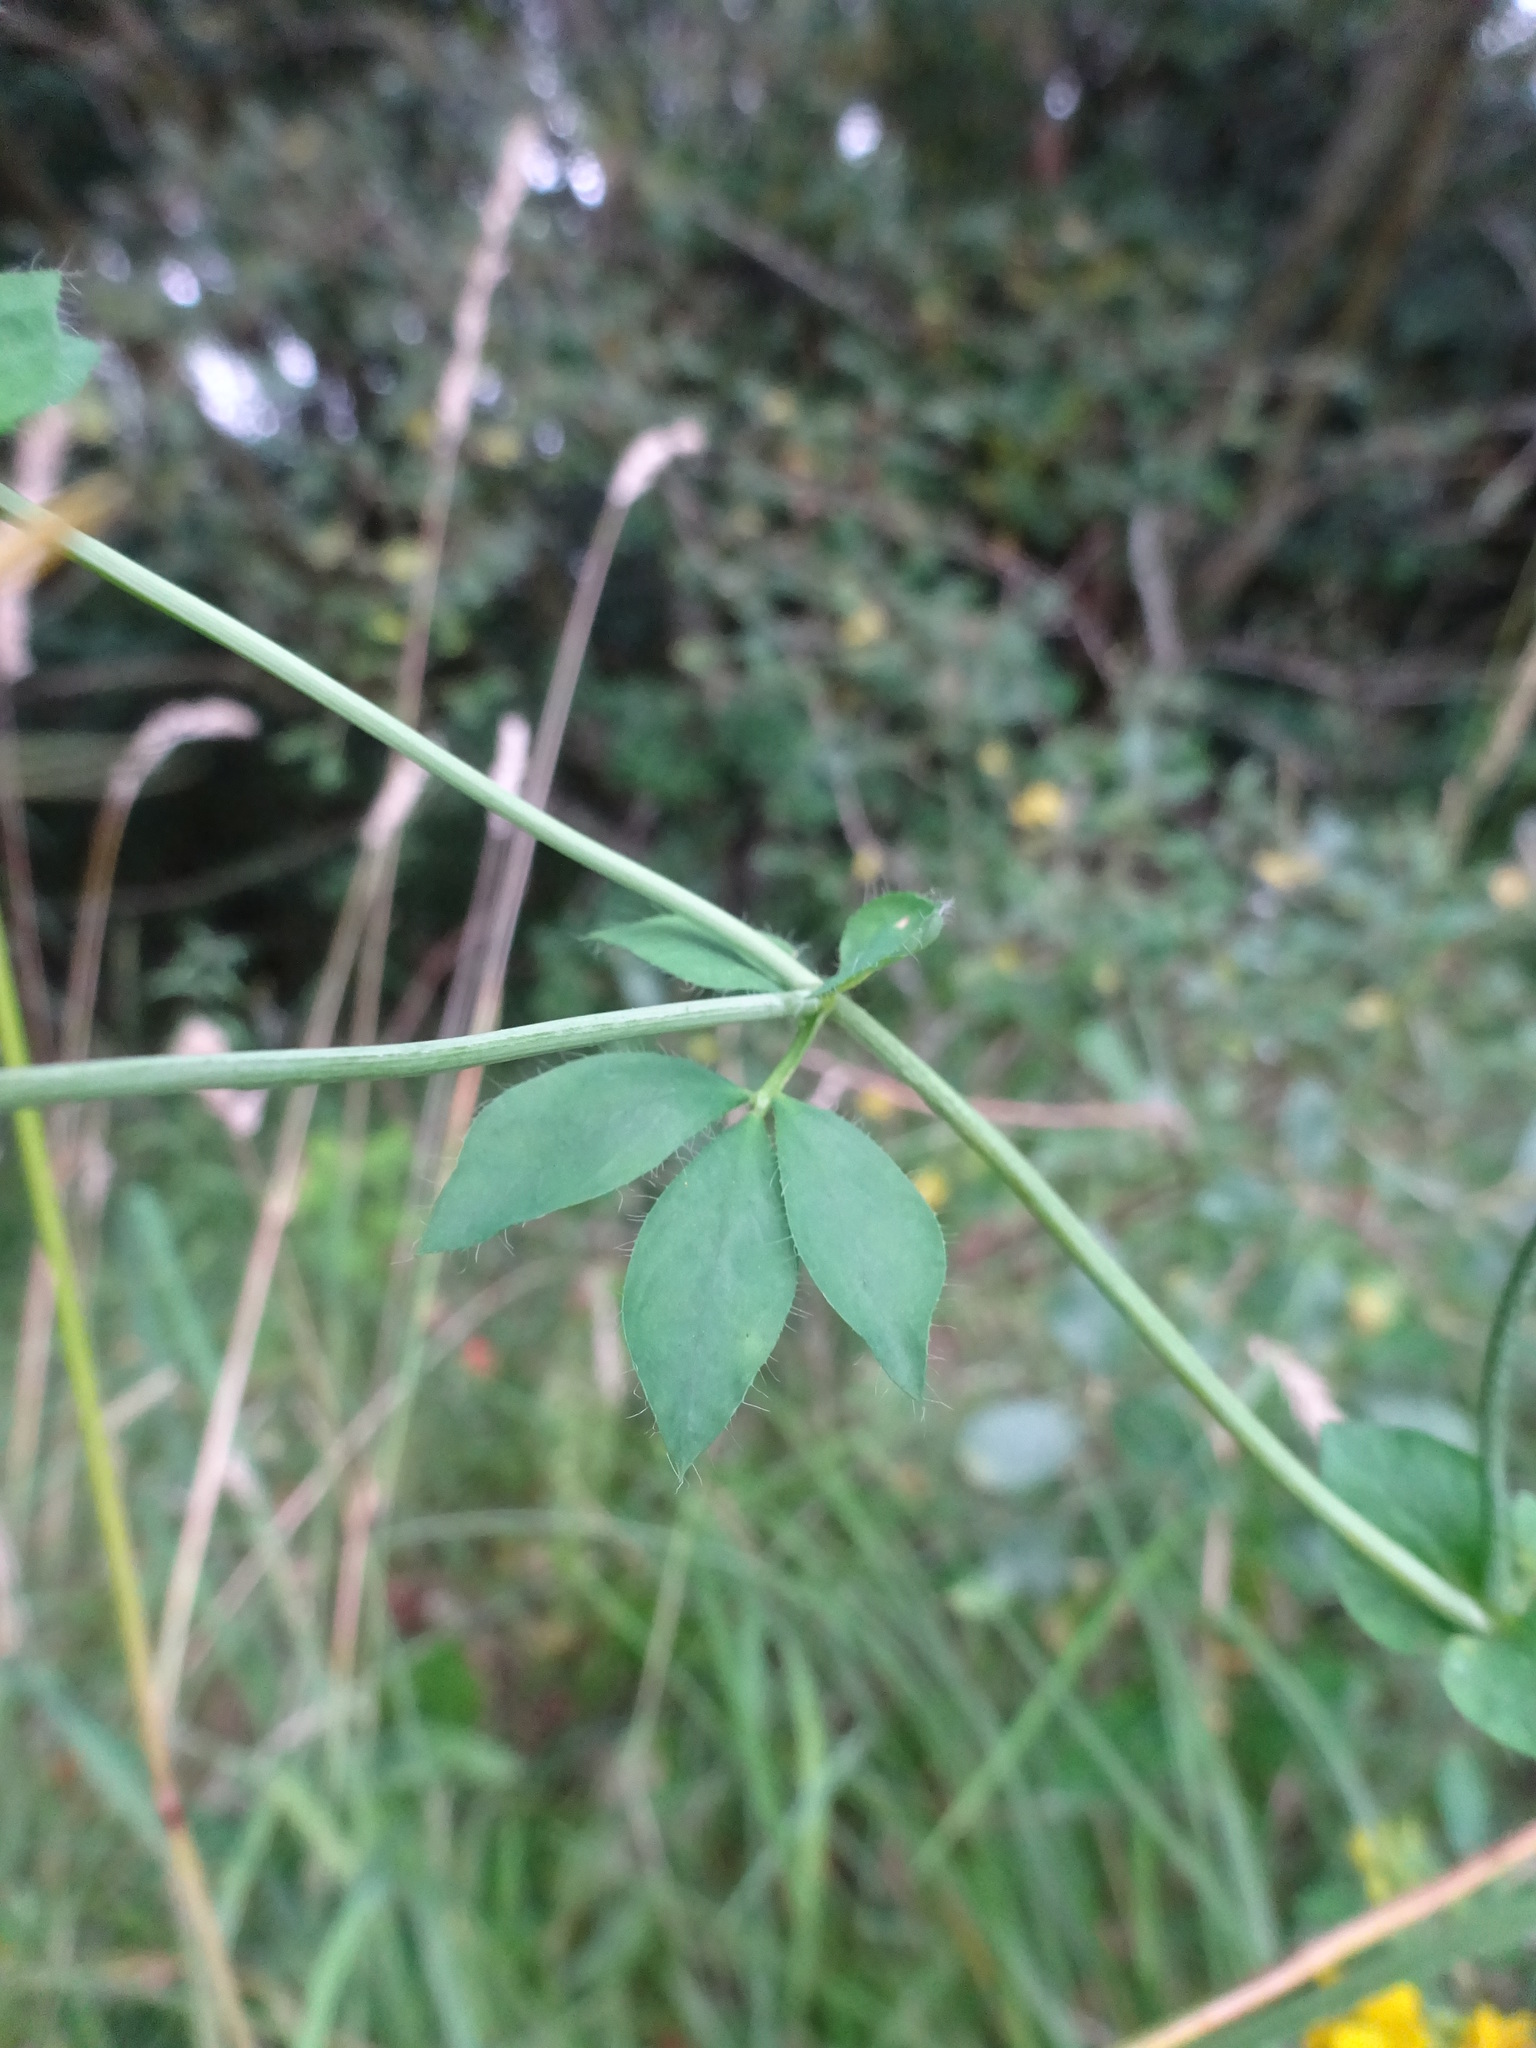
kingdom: Plantae
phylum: Tracheophyta
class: Magnoliopsida
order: Fabales
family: Fabaceae
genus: Lotus
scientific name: Lotus pedunculatus
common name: Greater birdsfoot-trefoil
